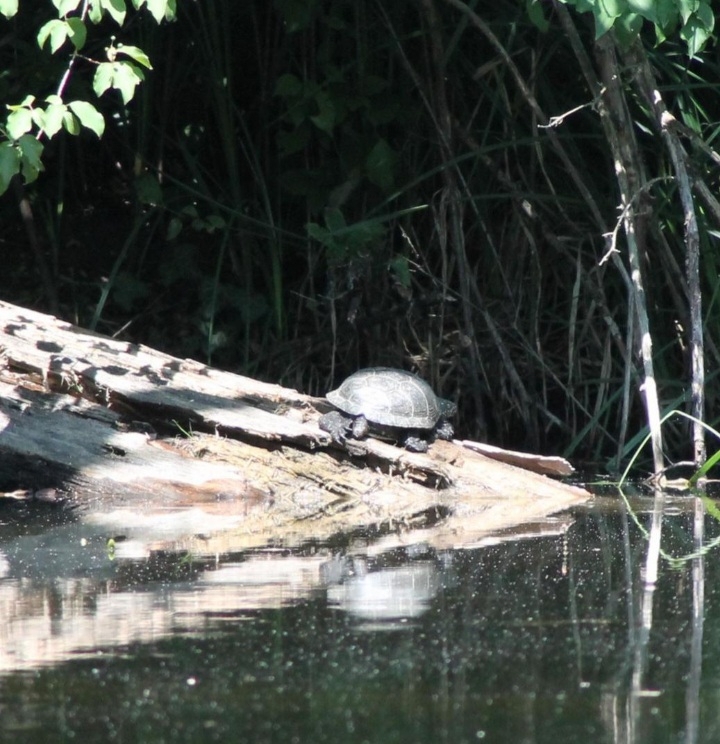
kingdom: Animalia
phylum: Chordata
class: Testudines
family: Emydidae
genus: Emys
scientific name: Emys orbicularis
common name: European pond turtle
